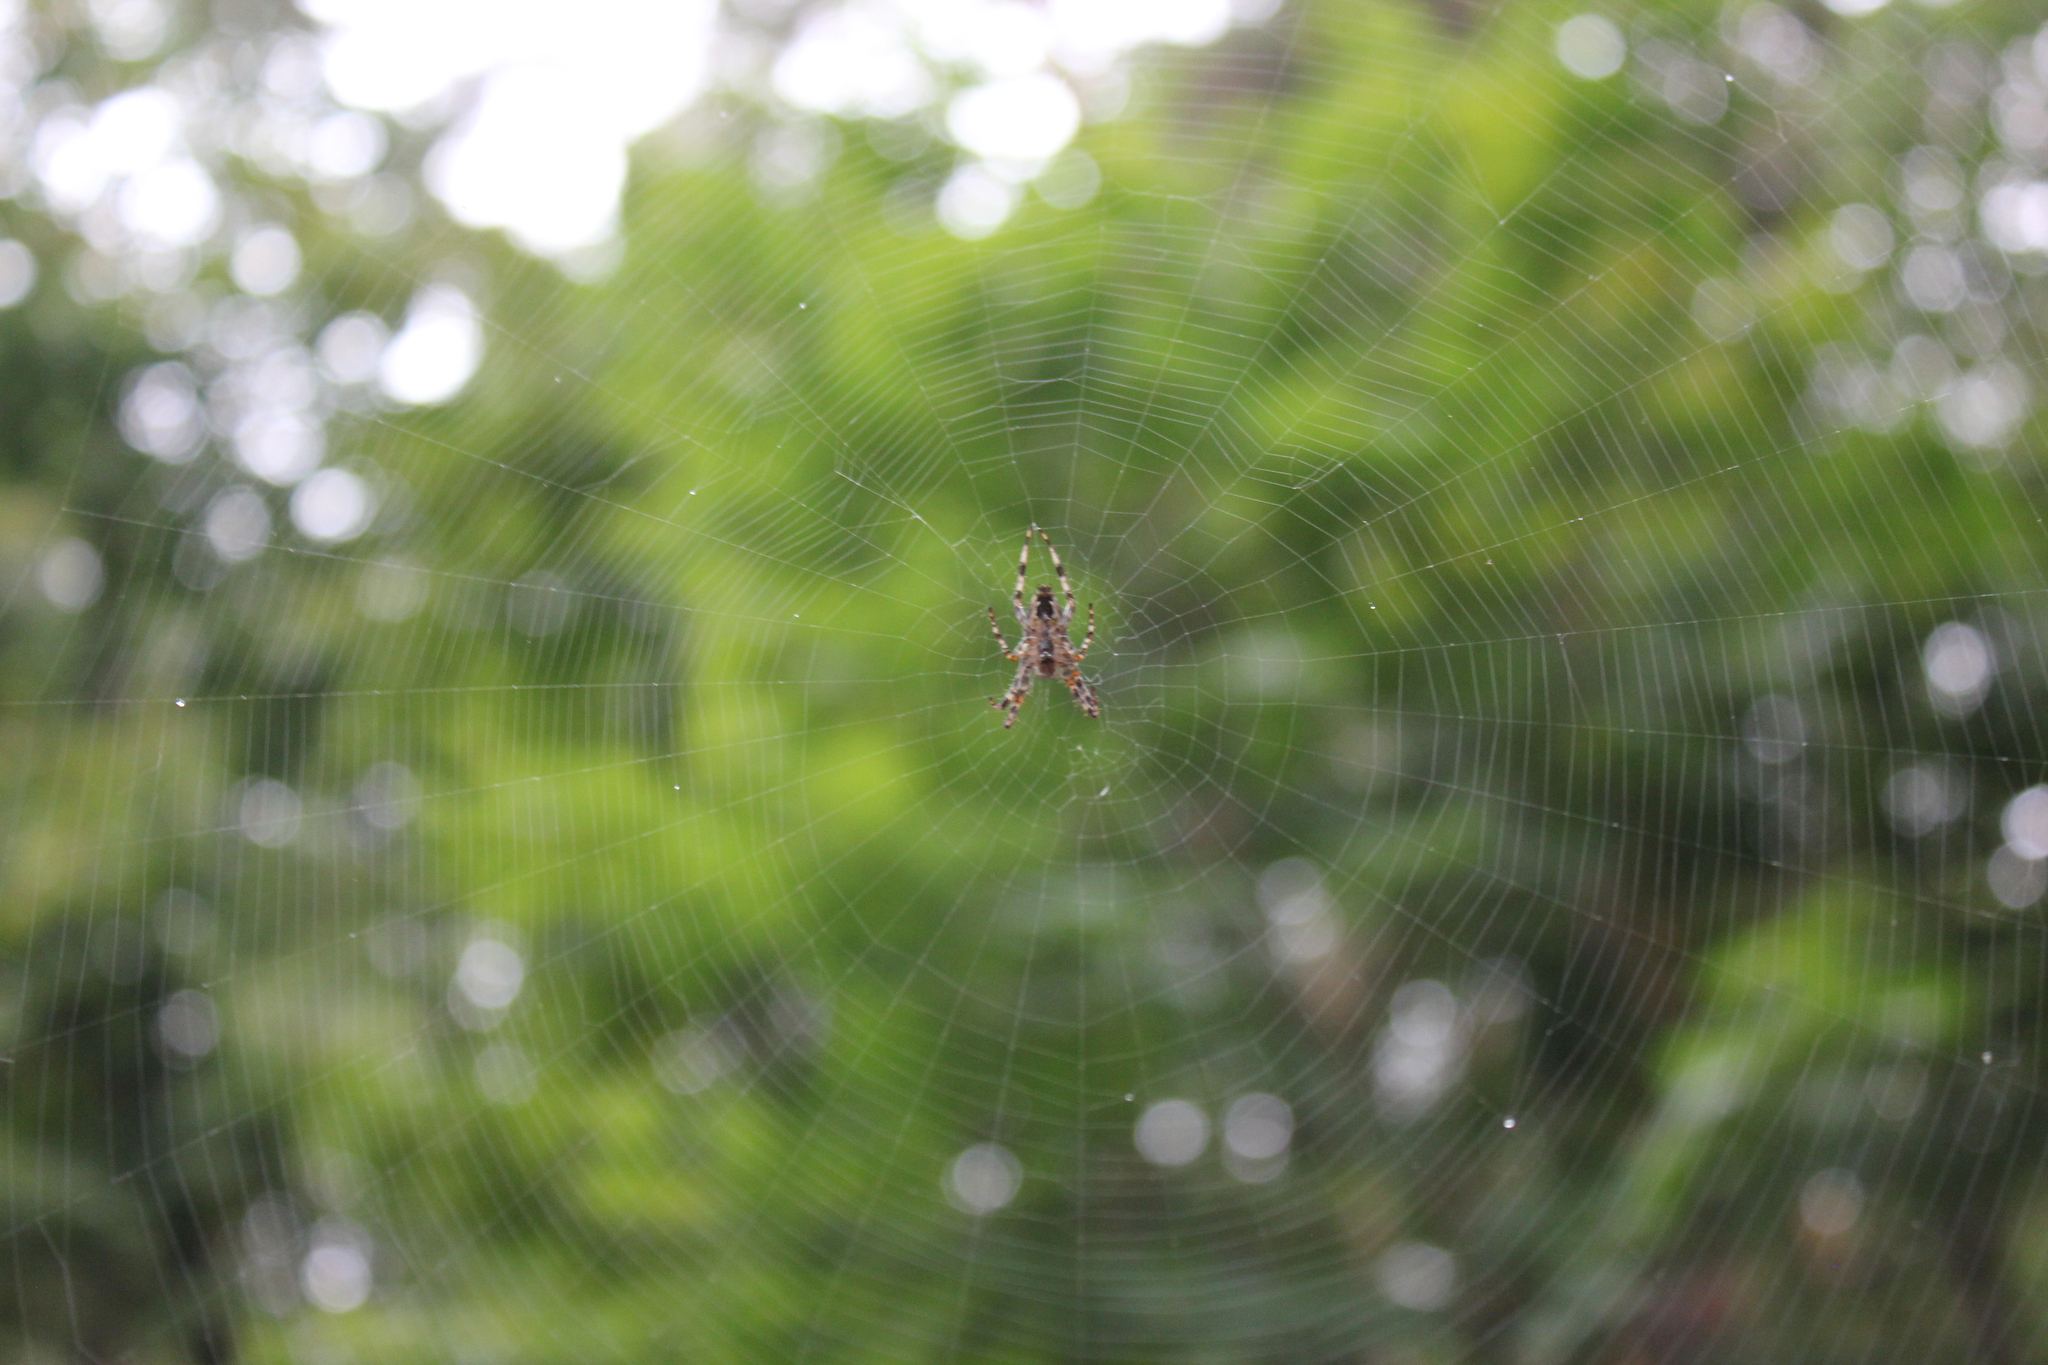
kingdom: Animalia
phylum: Arthropoda
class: Arachnida
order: Araneae
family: Araneidae
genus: Araneus
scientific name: Araneus diadematus
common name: Cross orbweaver
